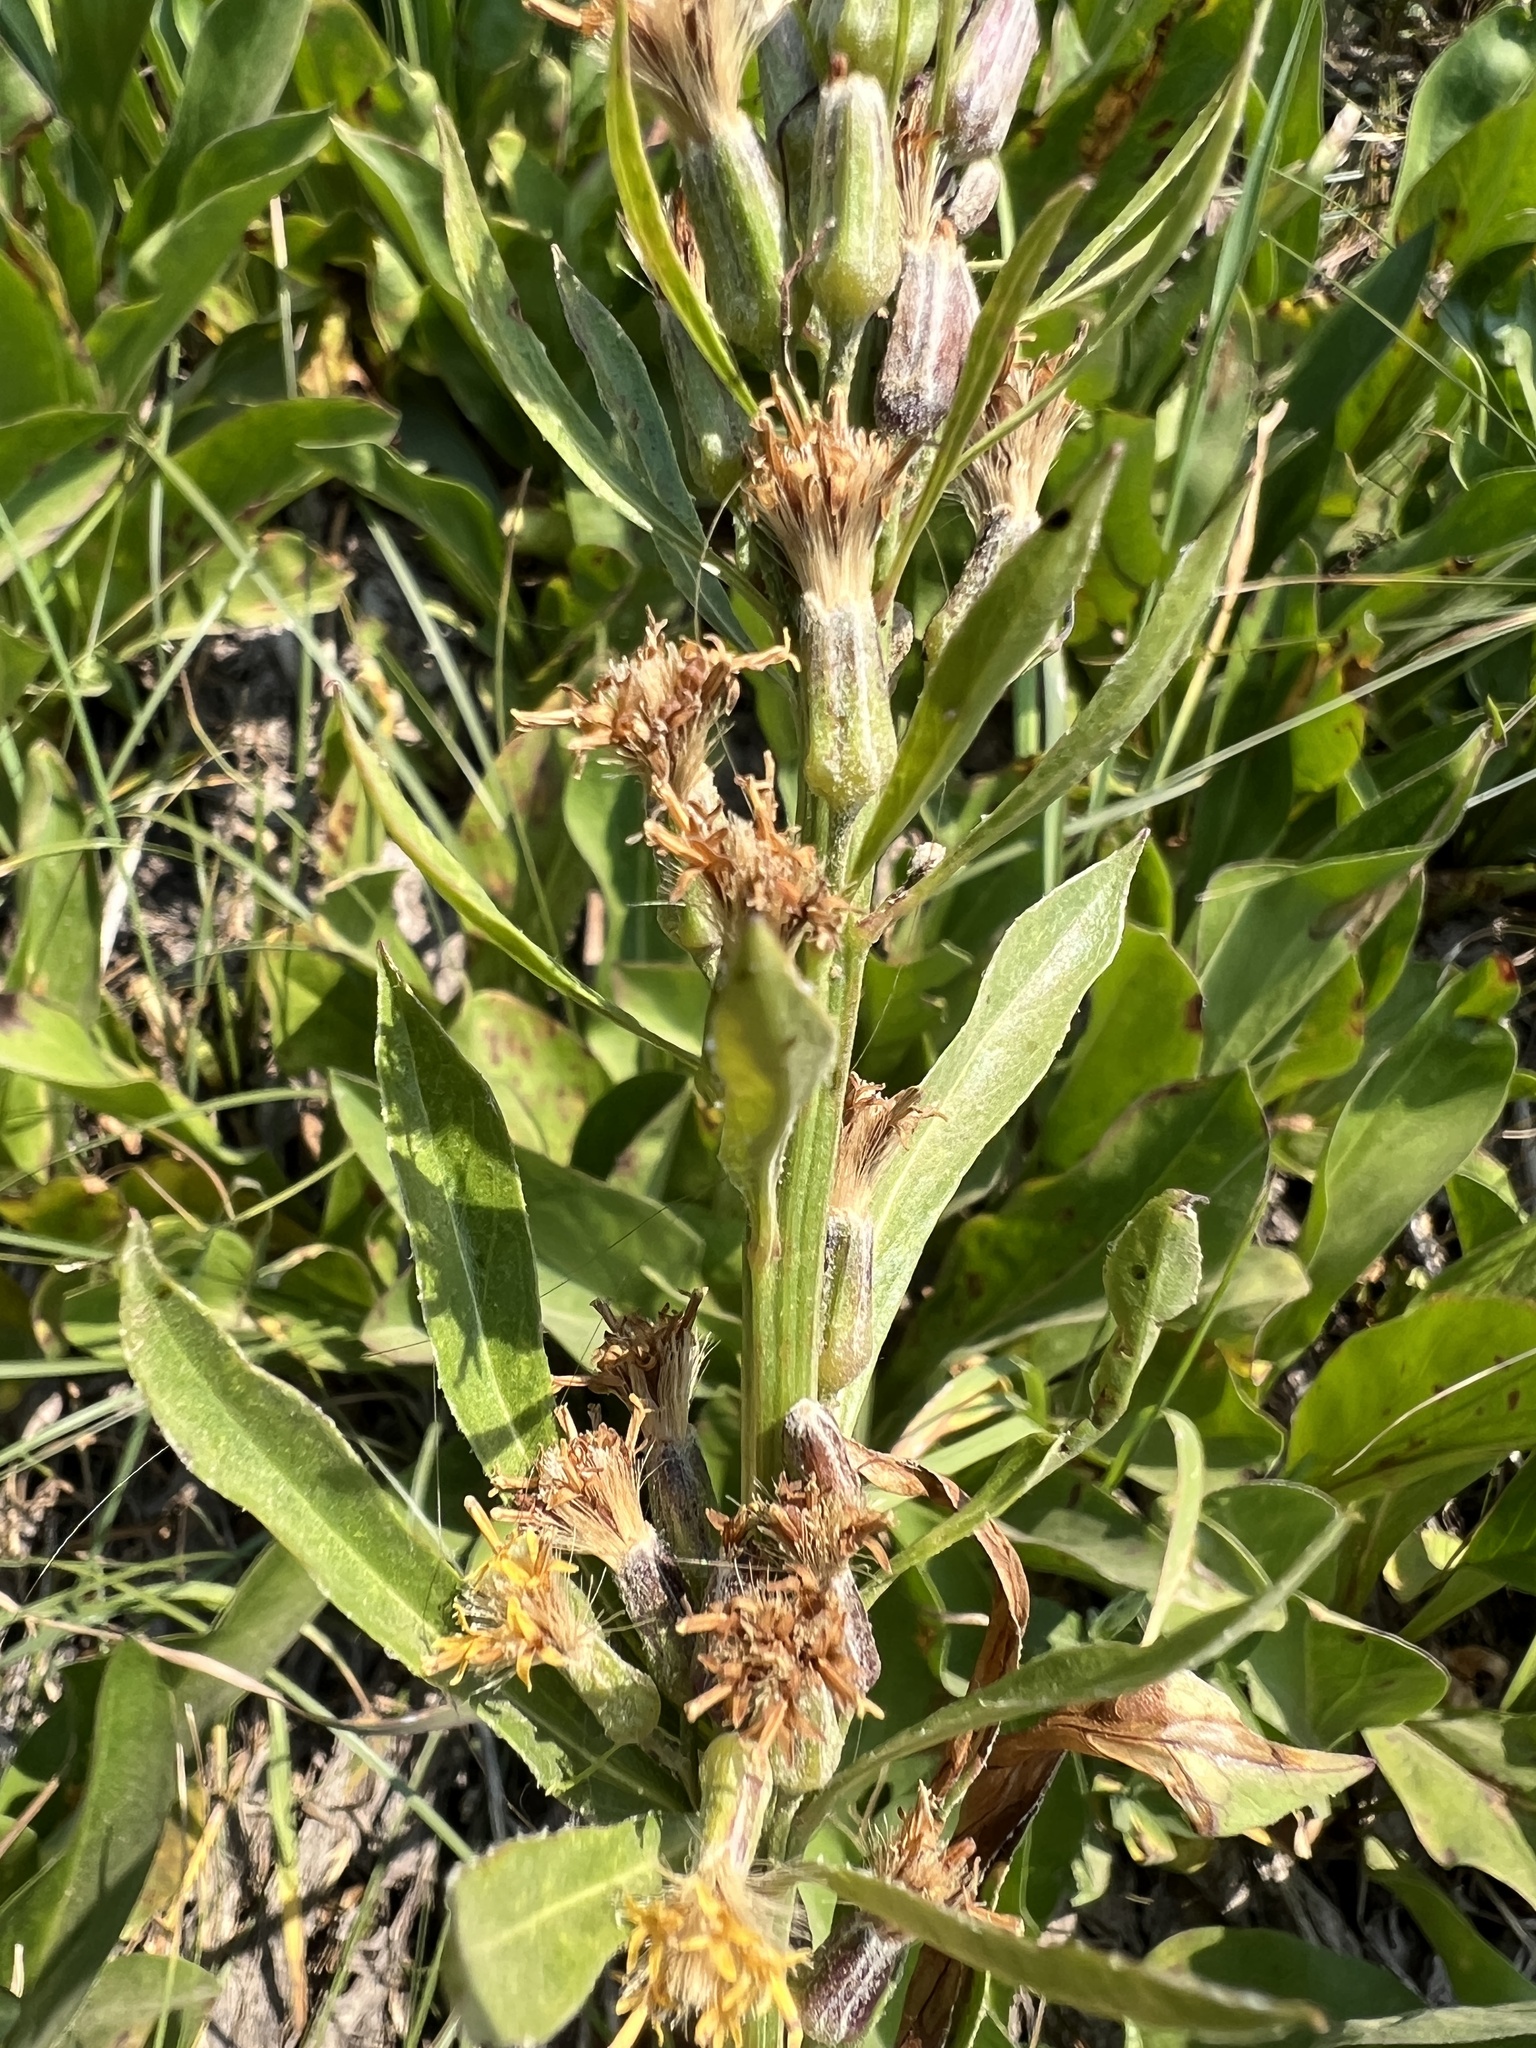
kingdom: Plantae
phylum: Tracheophyta
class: Magnoliopsida
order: Asterales
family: Asteraceae
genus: Rainiera
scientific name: Rainiera stricta
